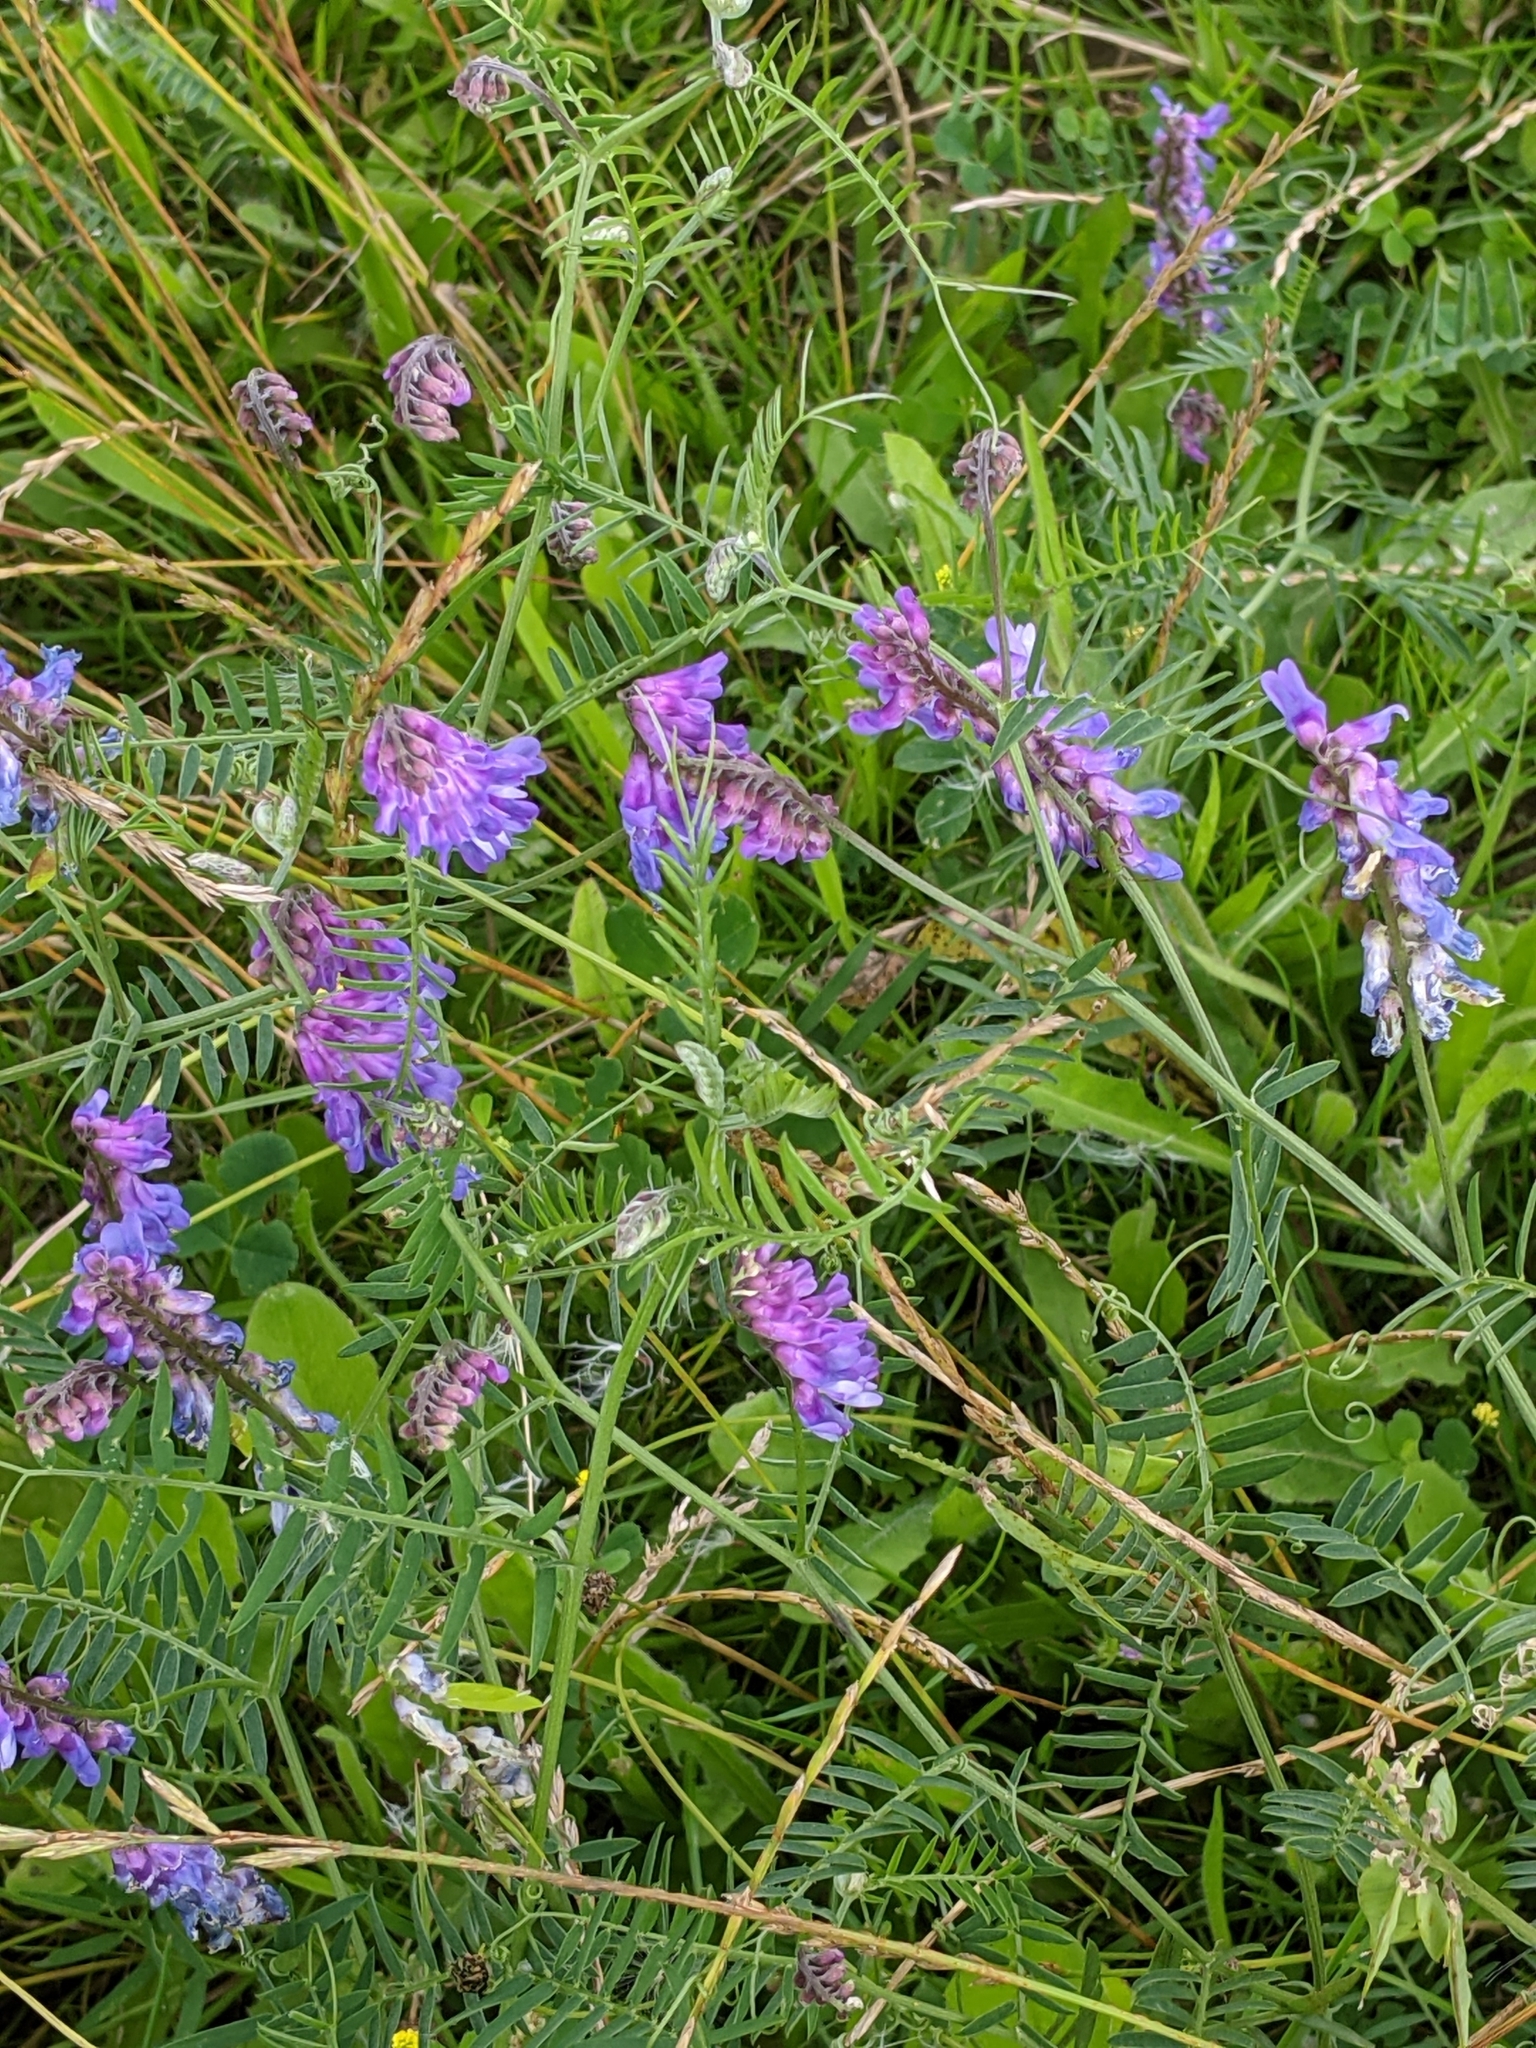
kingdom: Plantae
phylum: Tracheophyta
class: Magnoliopsida
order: Fabales
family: Fabaceae
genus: Vicia
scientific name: Vicia cracca
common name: Bird vetch
